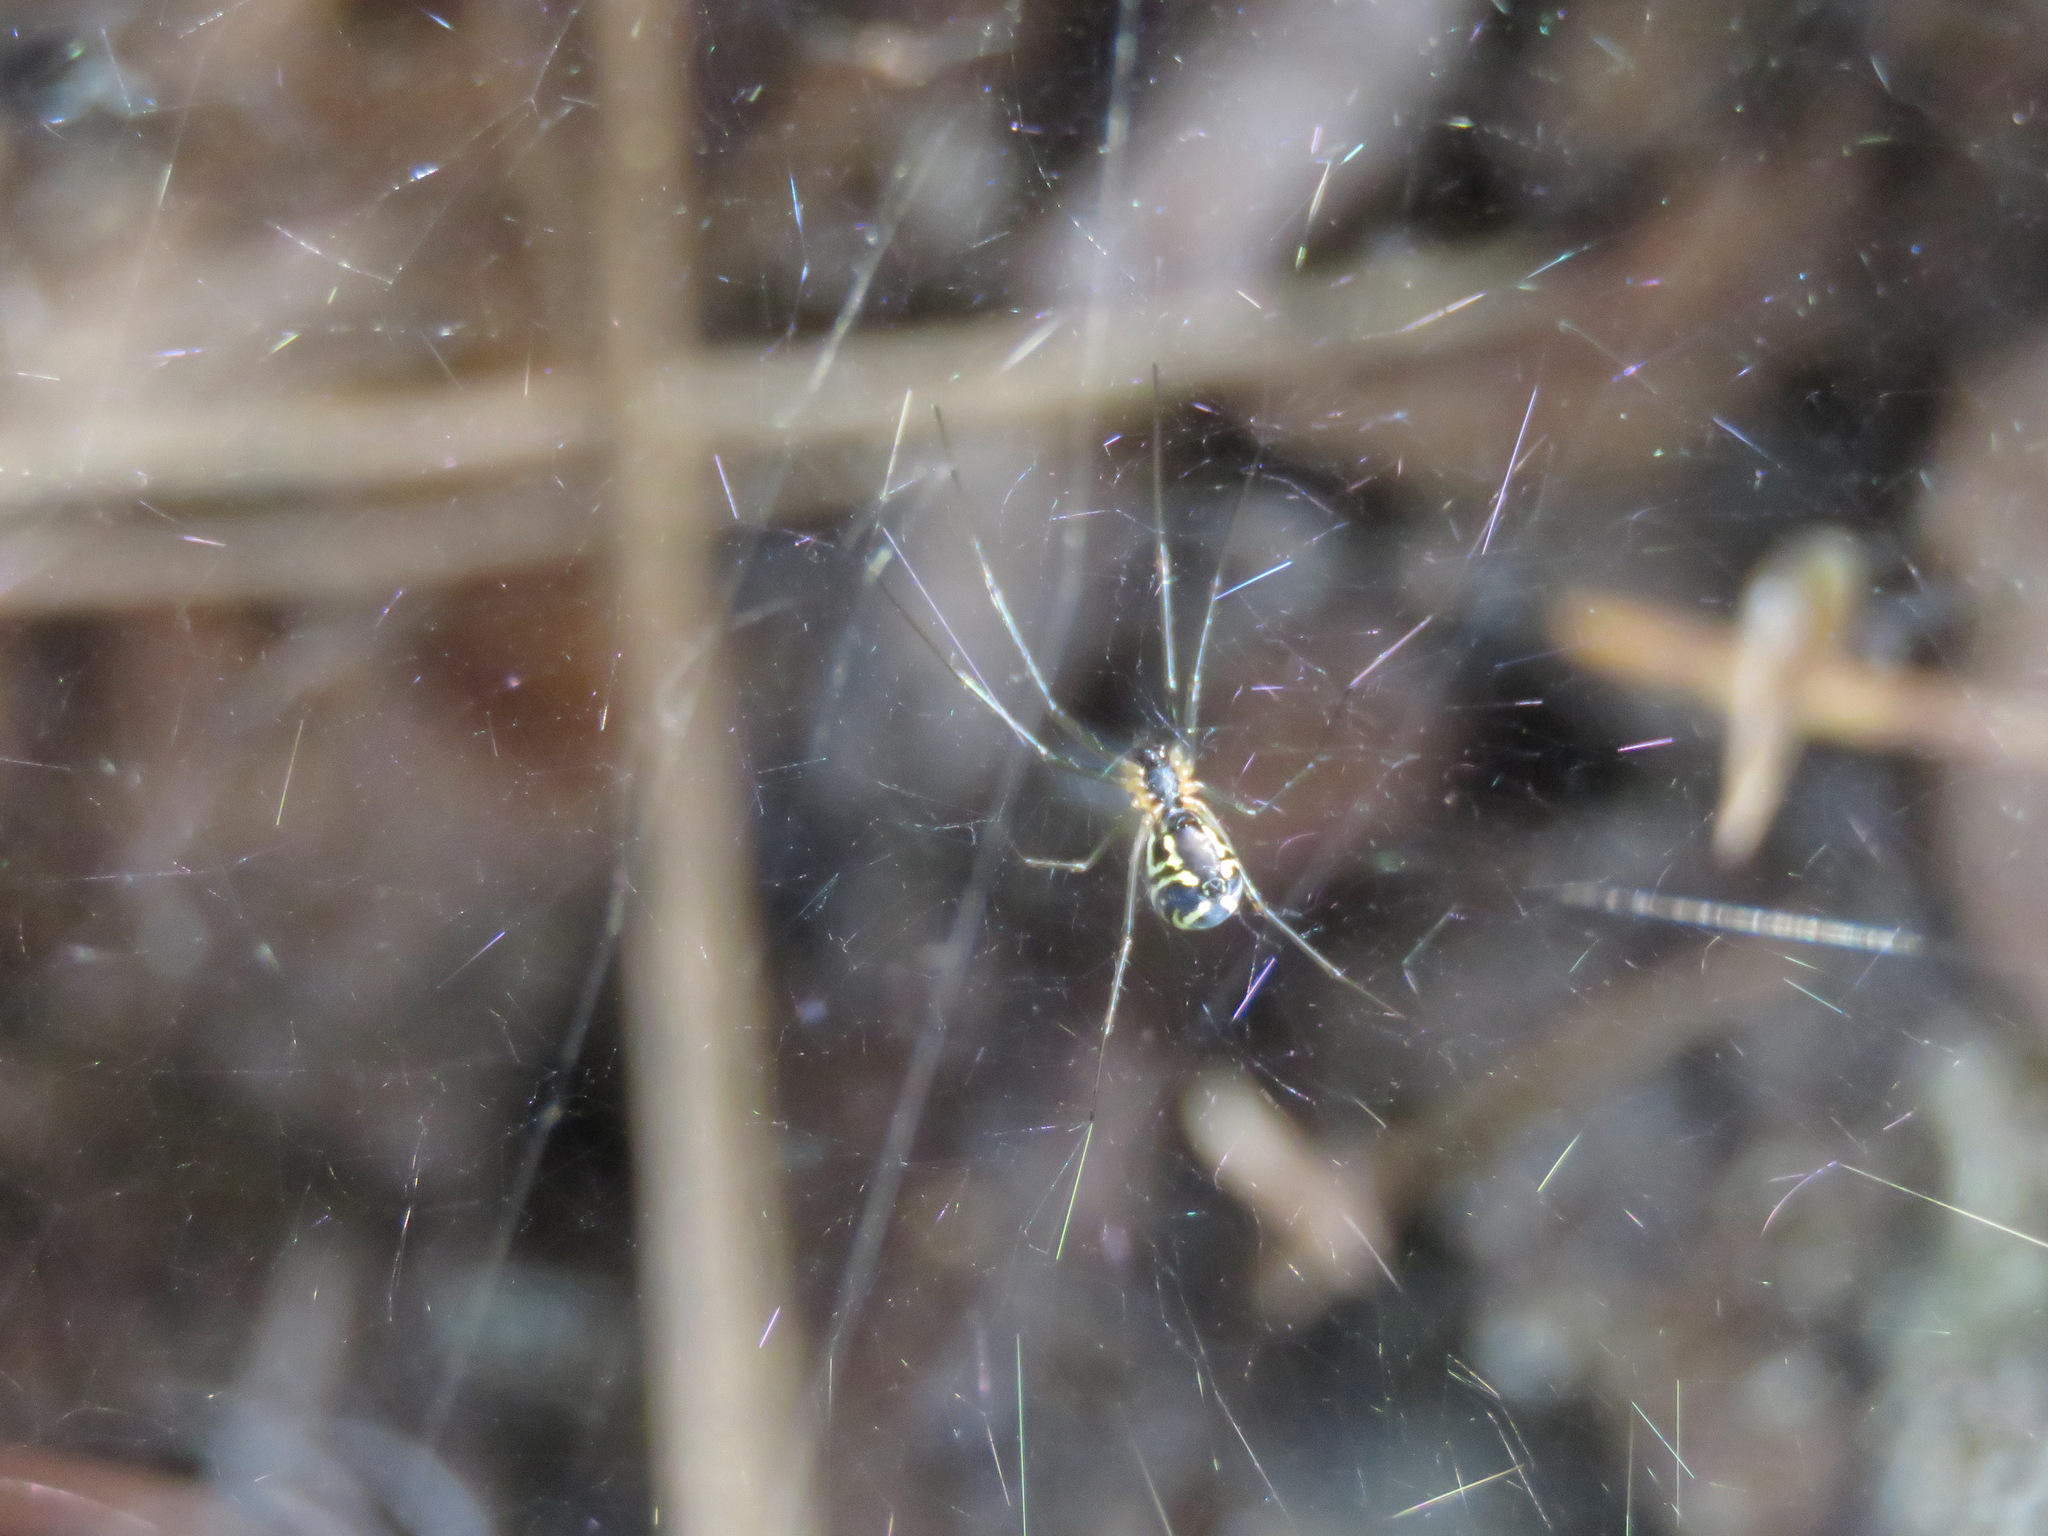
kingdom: Animalia
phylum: Arthropoda
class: Arachnida
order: Araneae
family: Linyphiidae
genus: Neriene
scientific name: Neriene radiata
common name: Filmy dome spider
